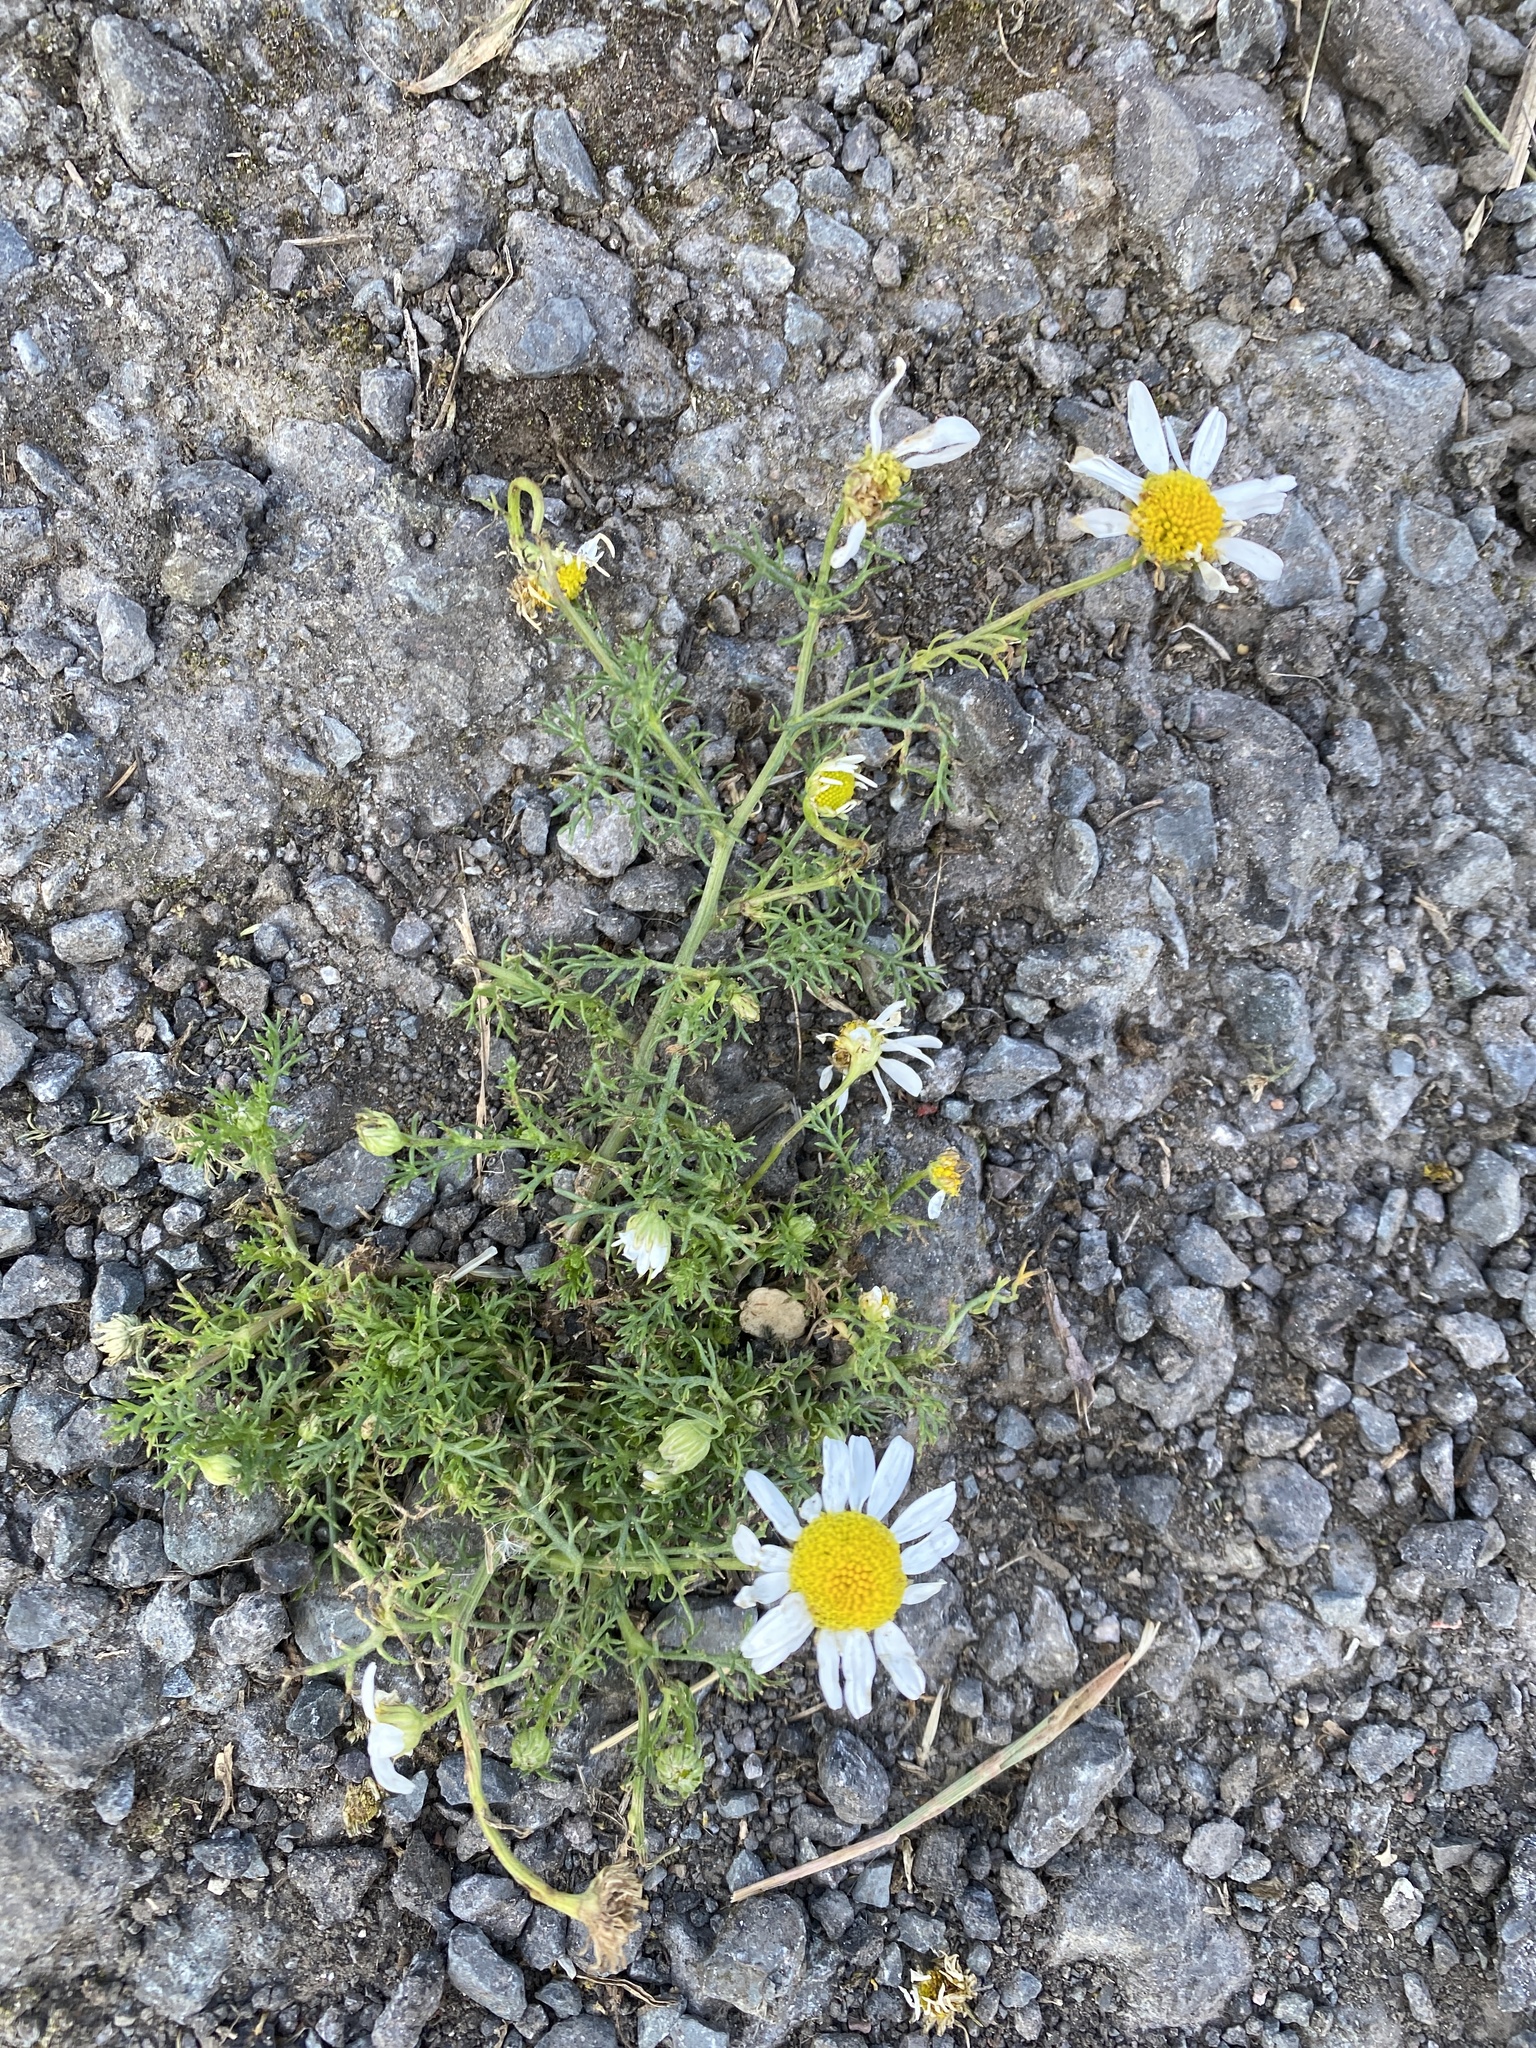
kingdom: Plantae
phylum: Tracheophyta
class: Magnoliopsida
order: Asterales
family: Asteraceae
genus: Tripleurospermum
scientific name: Tripleurospermum inodorum
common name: Scentless mayweed
